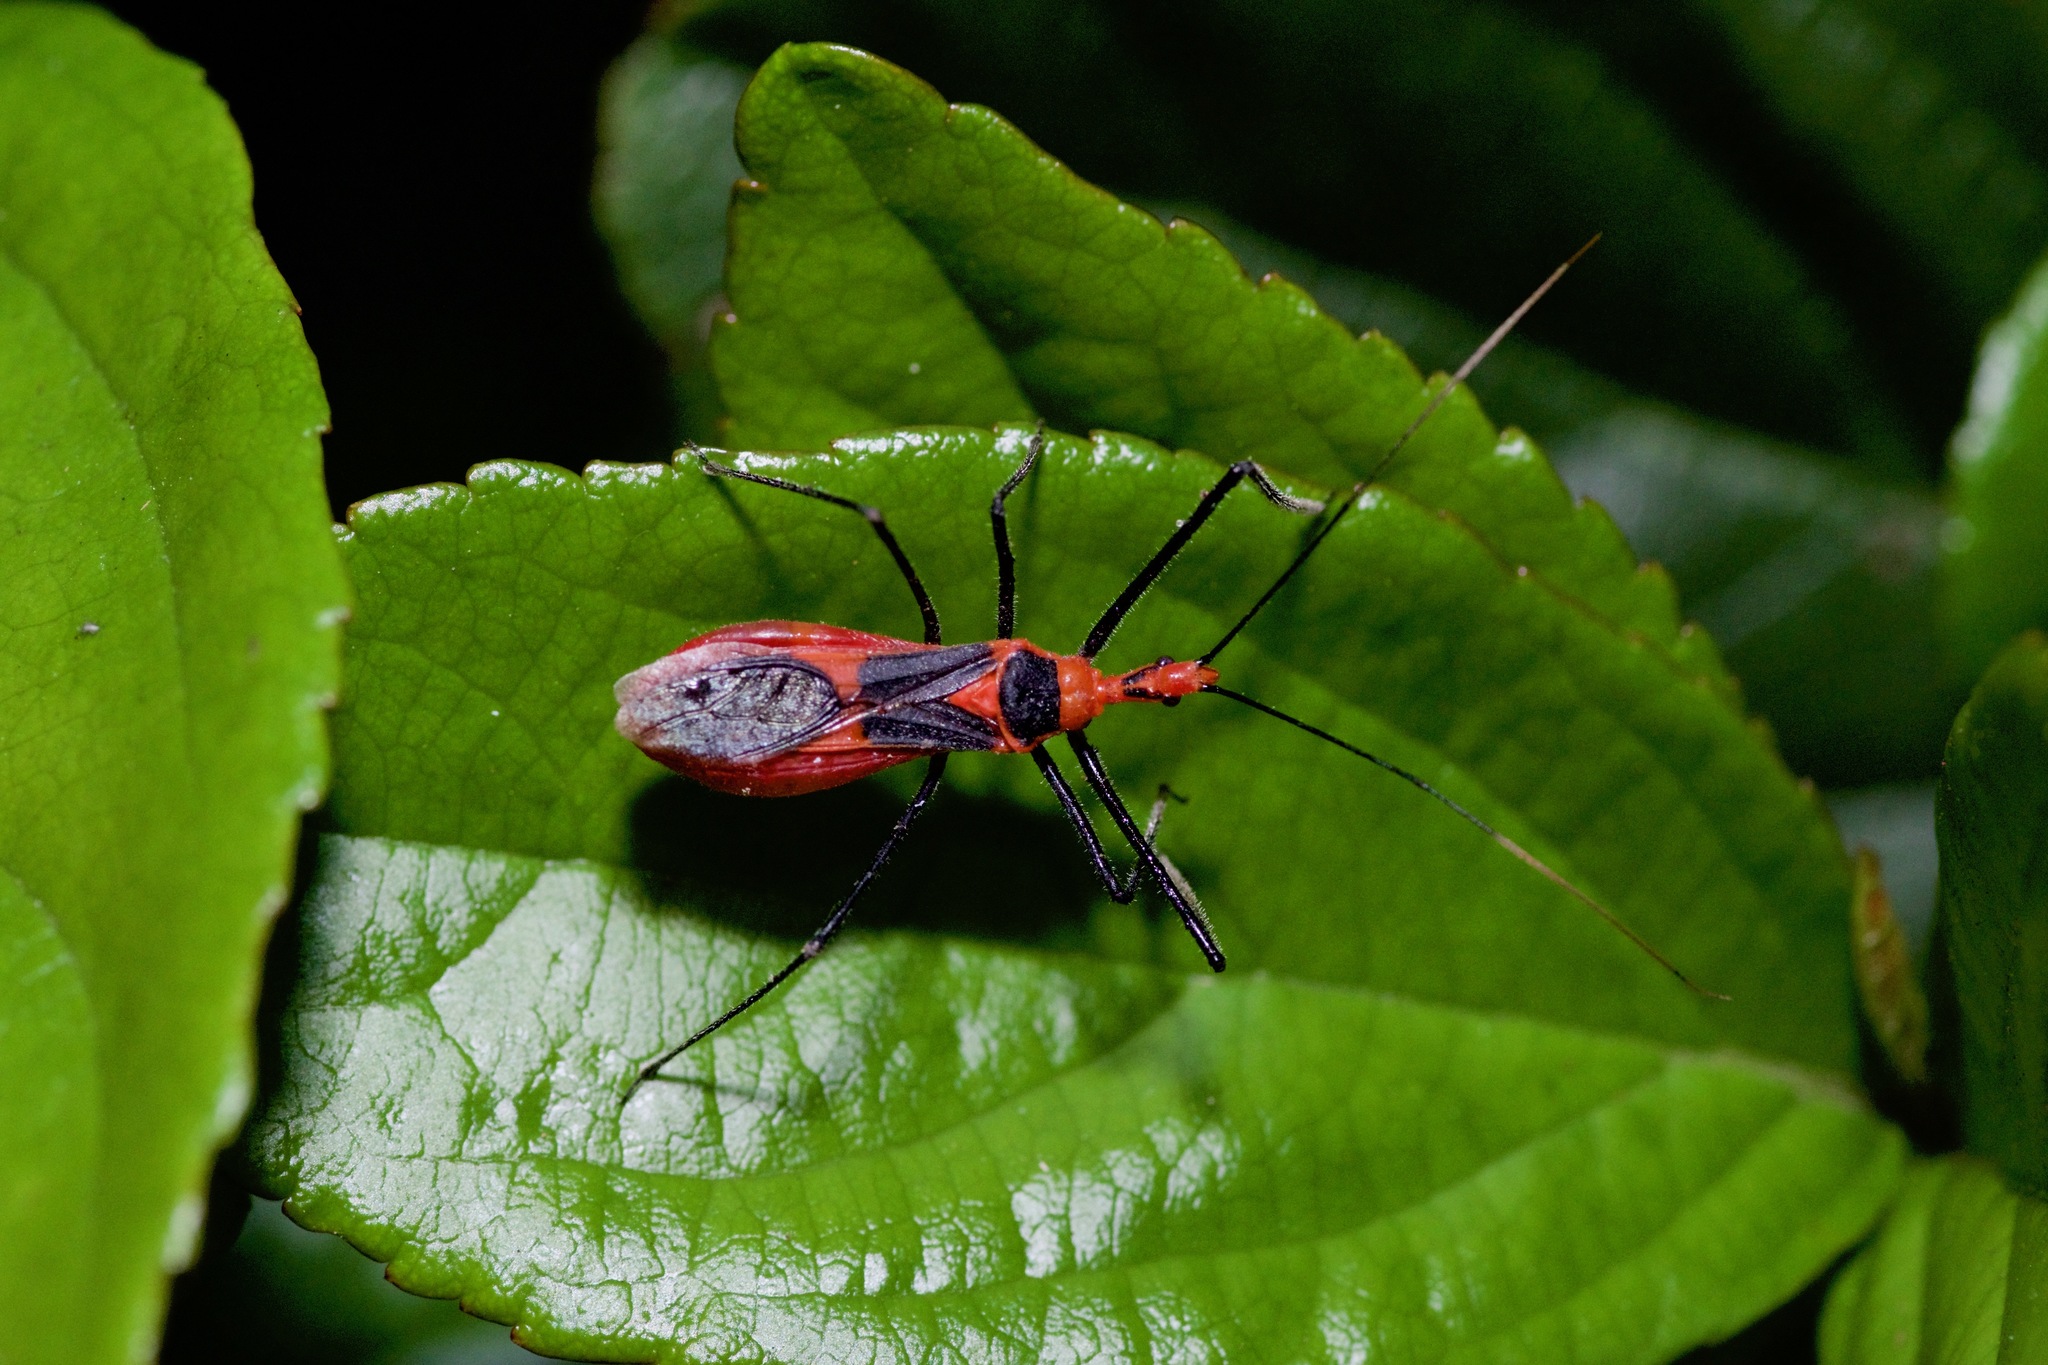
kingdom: Animalia
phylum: Arthropoda
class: Insecta
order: Hemiptera
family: Reduviidae
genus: Zelus
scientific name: Zelus longipes
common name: Milkweed assassin bug
